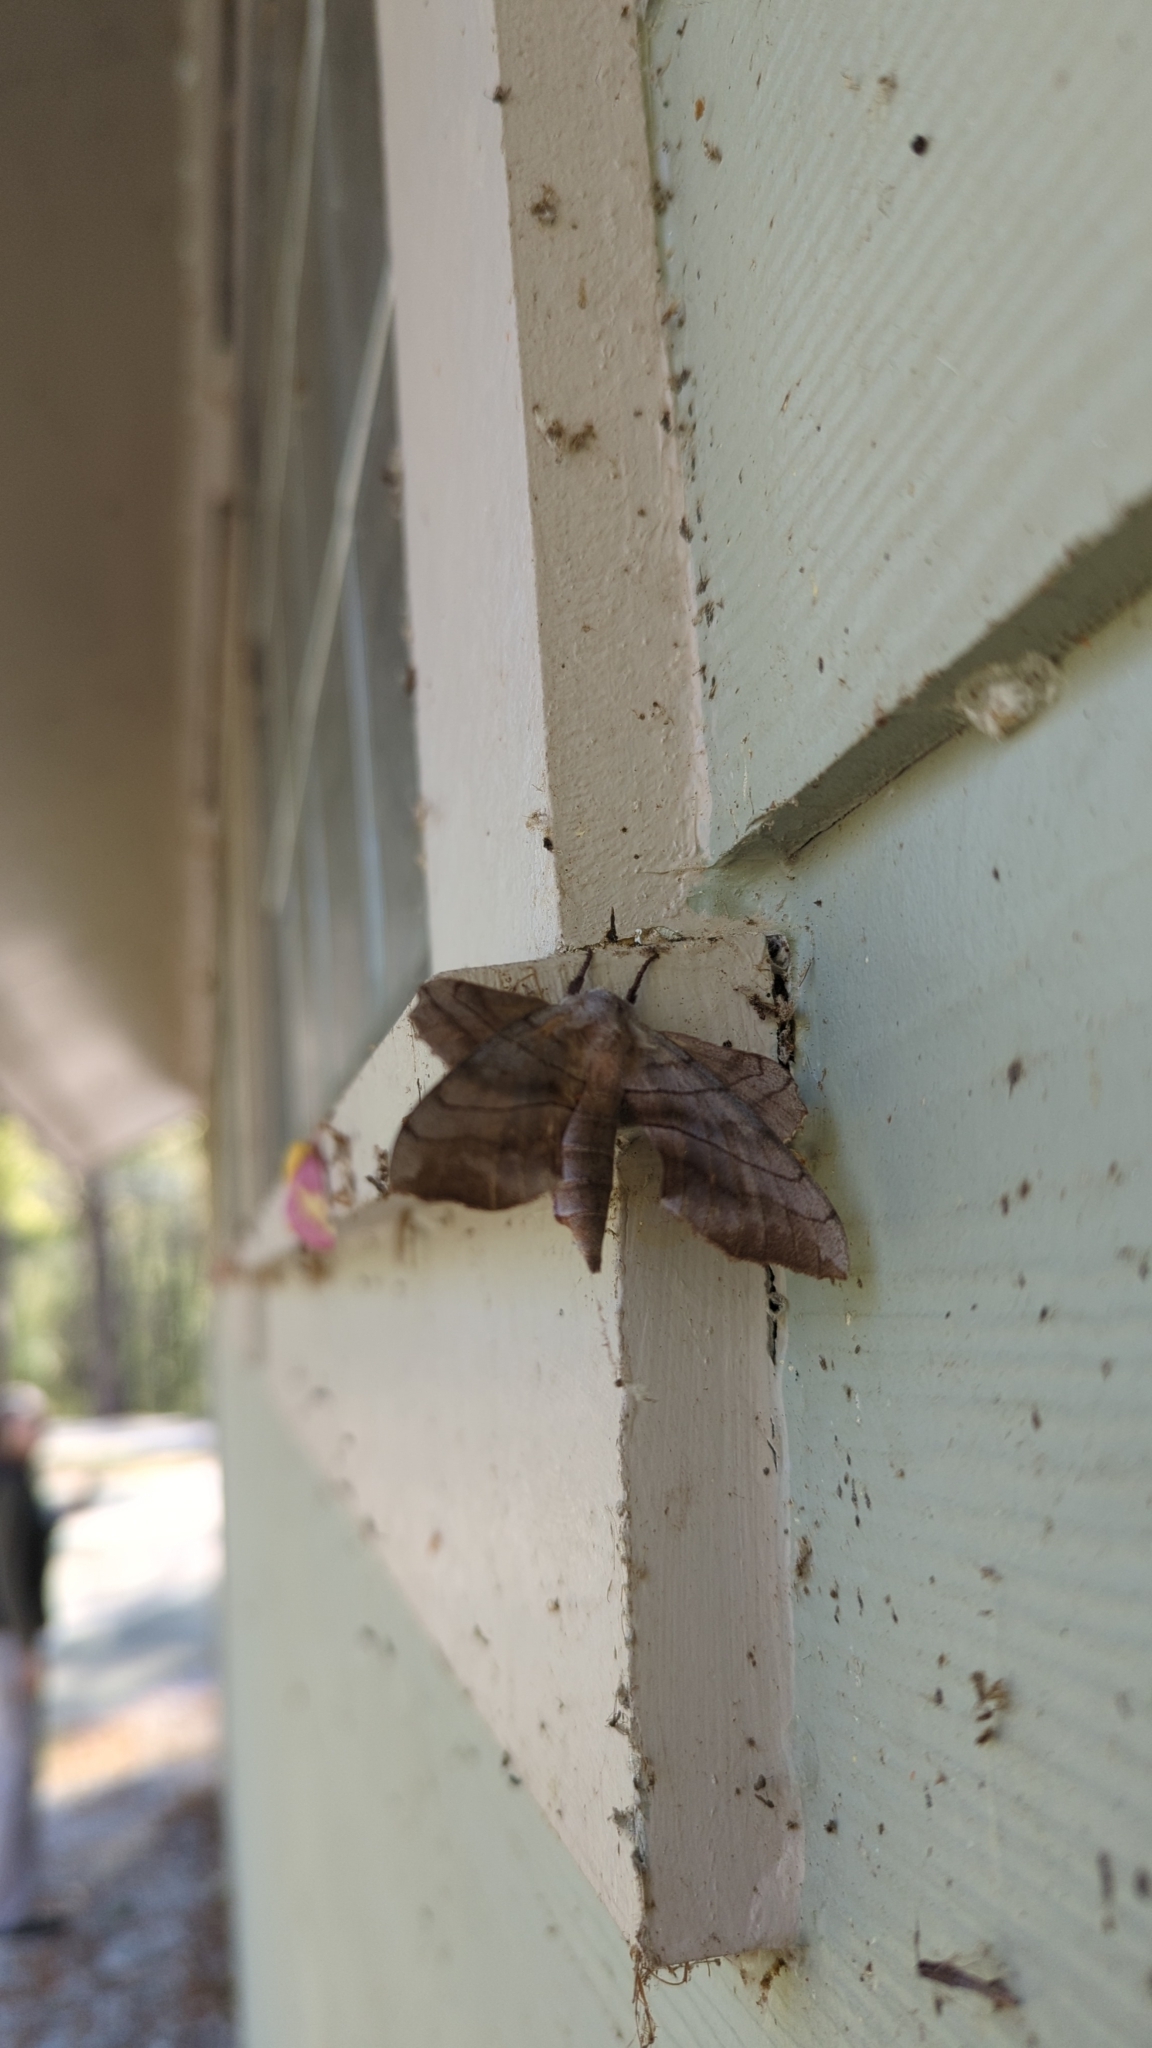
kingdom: Animalia
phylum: Arthropoda
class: Insecta
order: Lepidoptera
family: Sphingidae
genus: Amorpha
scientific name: Amorpha juglandis
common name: Walnut sphinx
